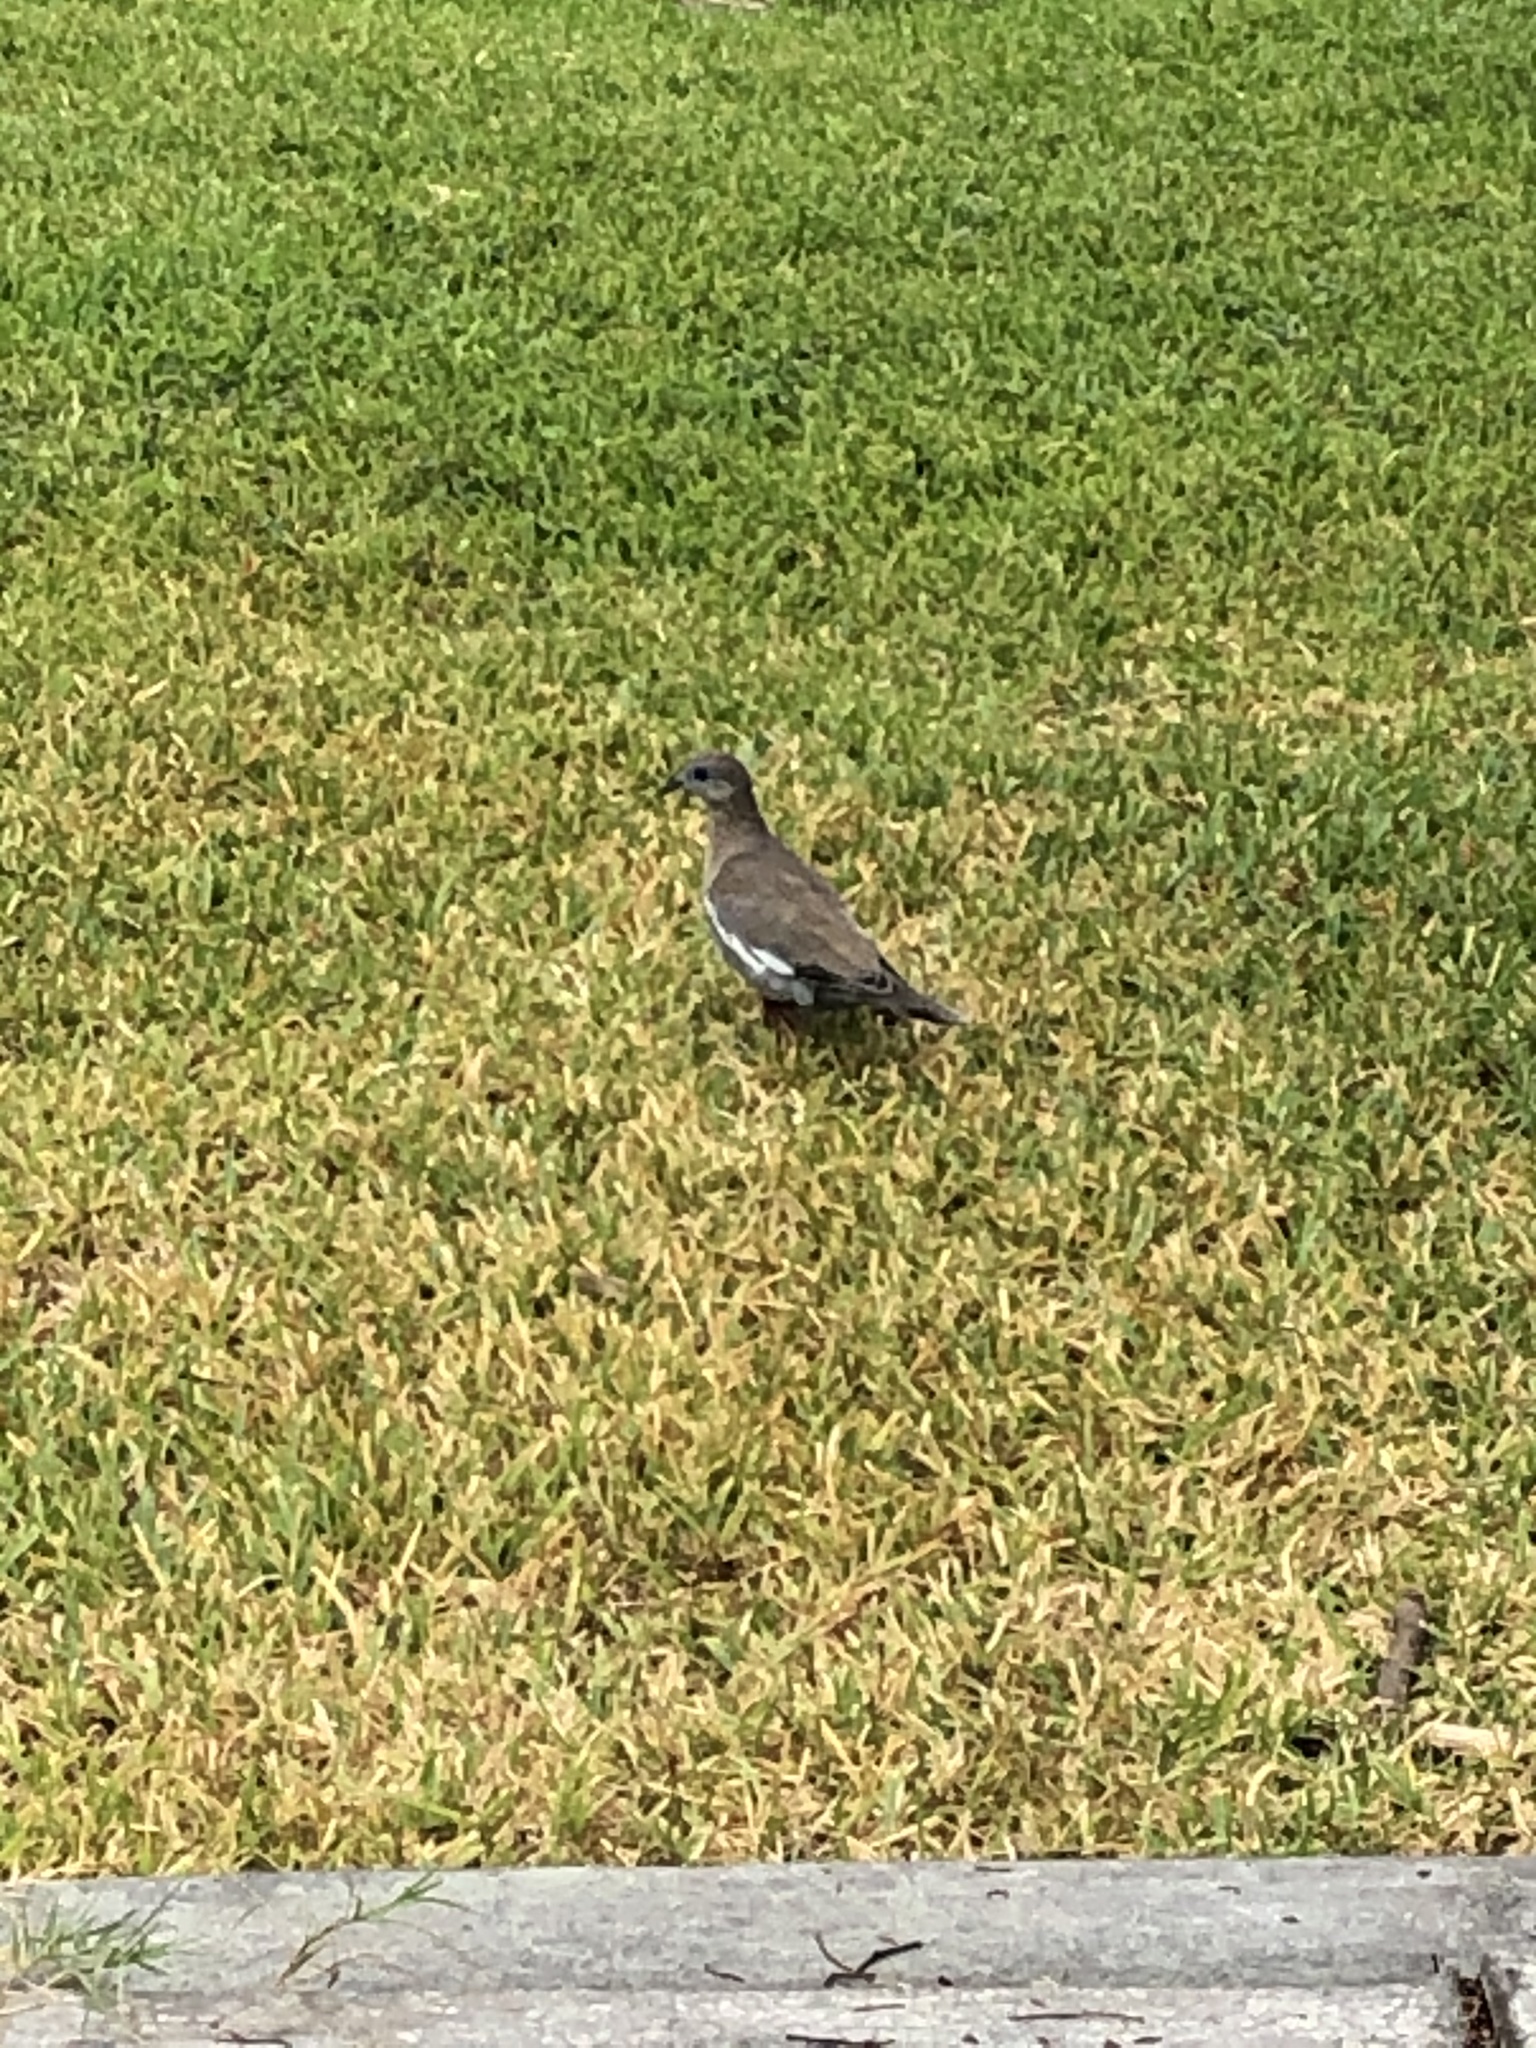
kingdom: Animalia
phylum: Chordata
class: Aves
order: Columbiformes
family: Columbidae
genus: Zenaida
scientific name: Zenaida meloda
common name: West peruvian dove
